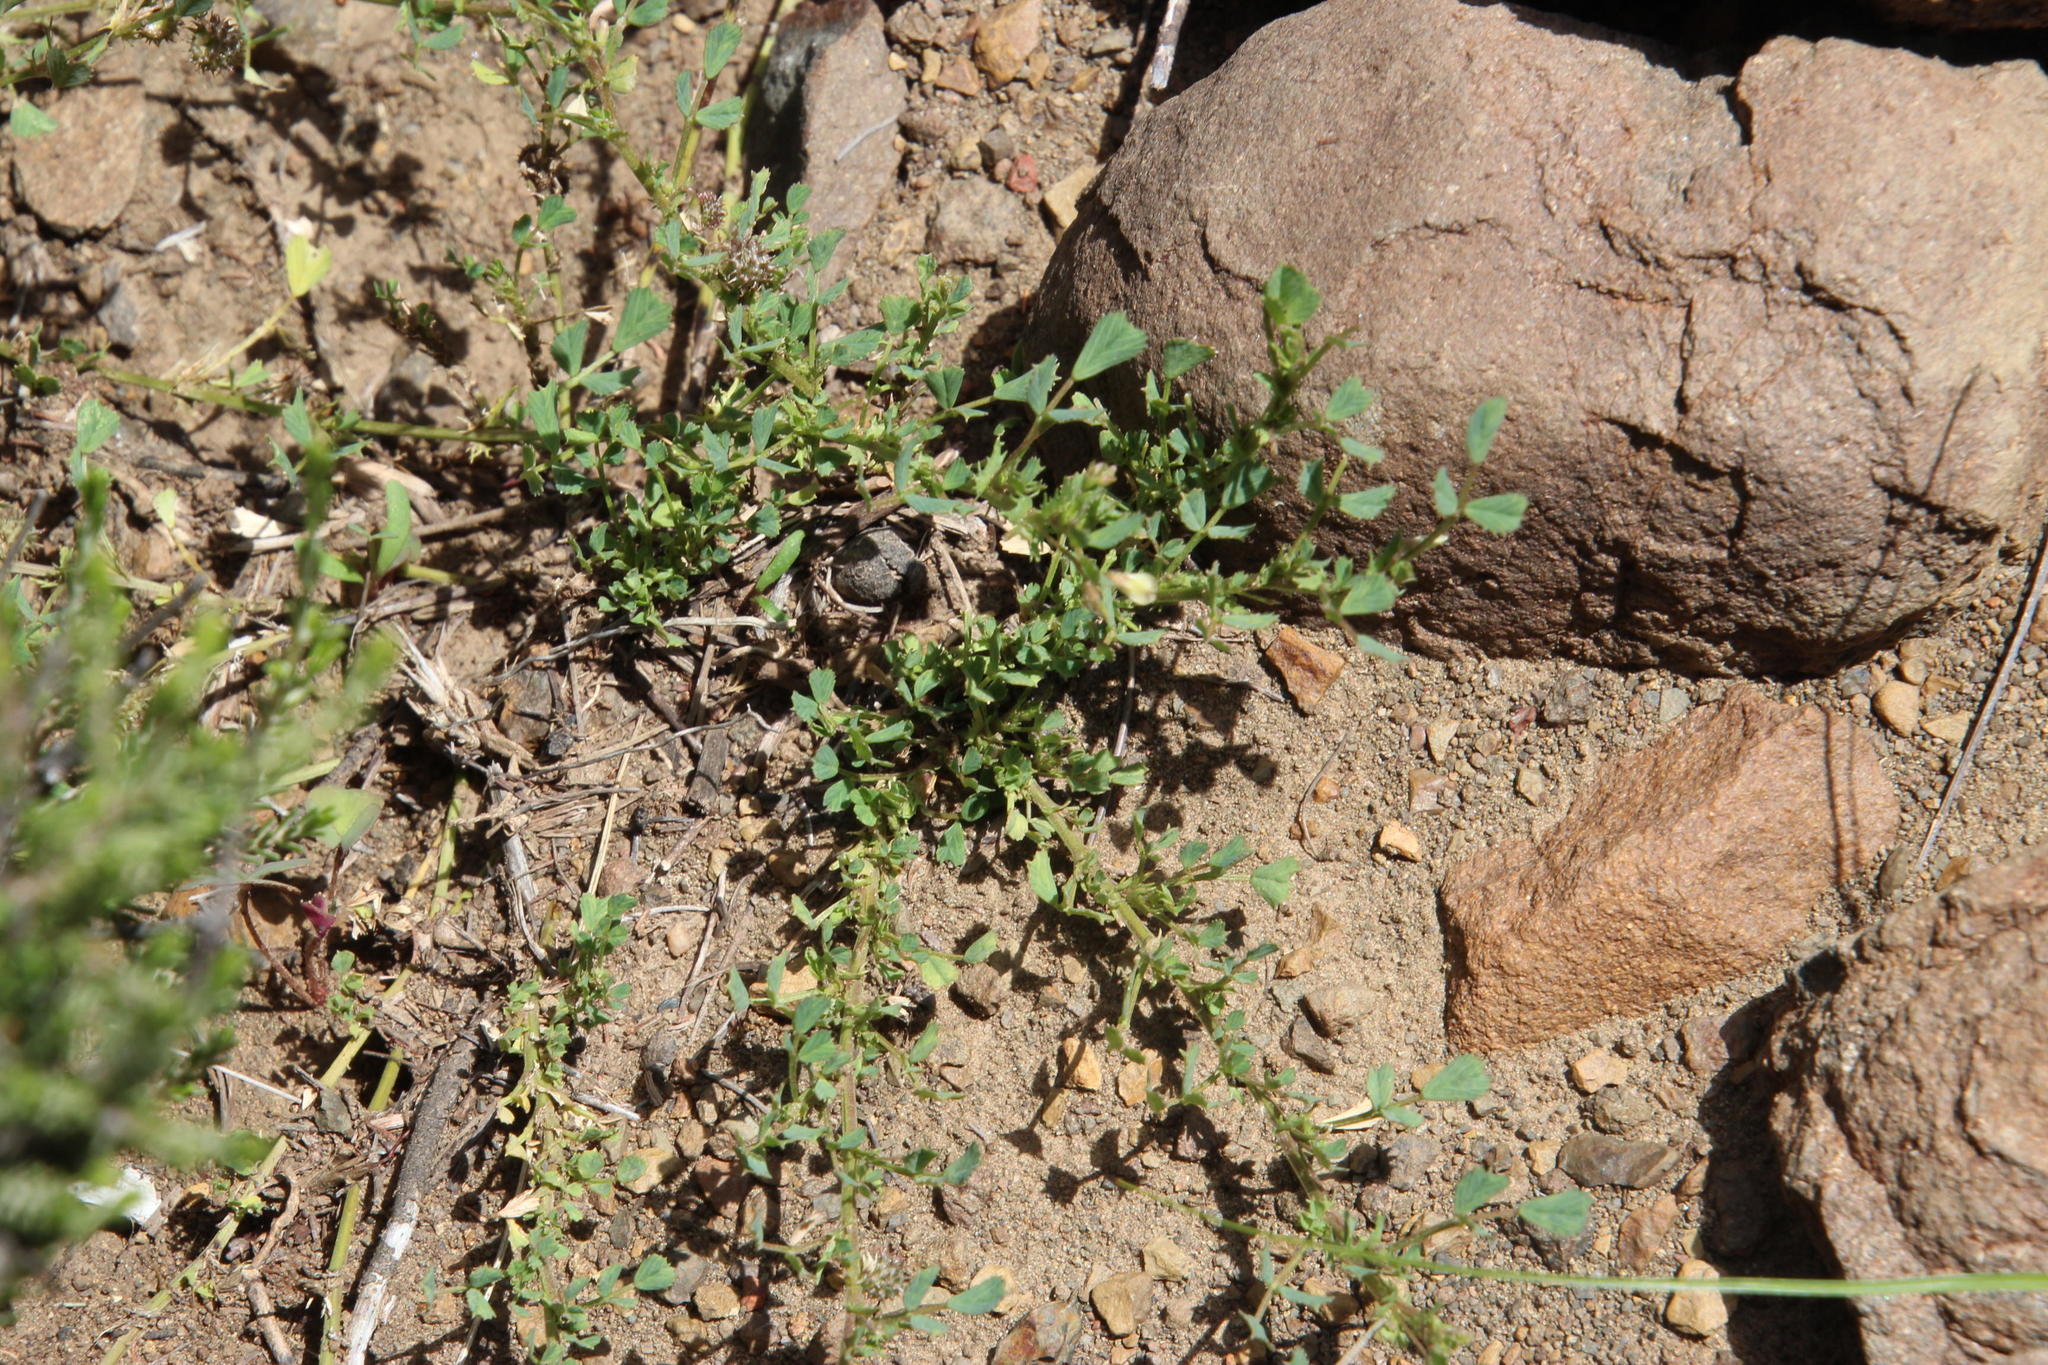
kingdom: Plantae
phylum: Tracheophyta
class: Magnoliopsida
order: Fabales
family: Fabaceae
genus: Medicago
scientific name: Medicago laciniata
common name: Tattered medick
